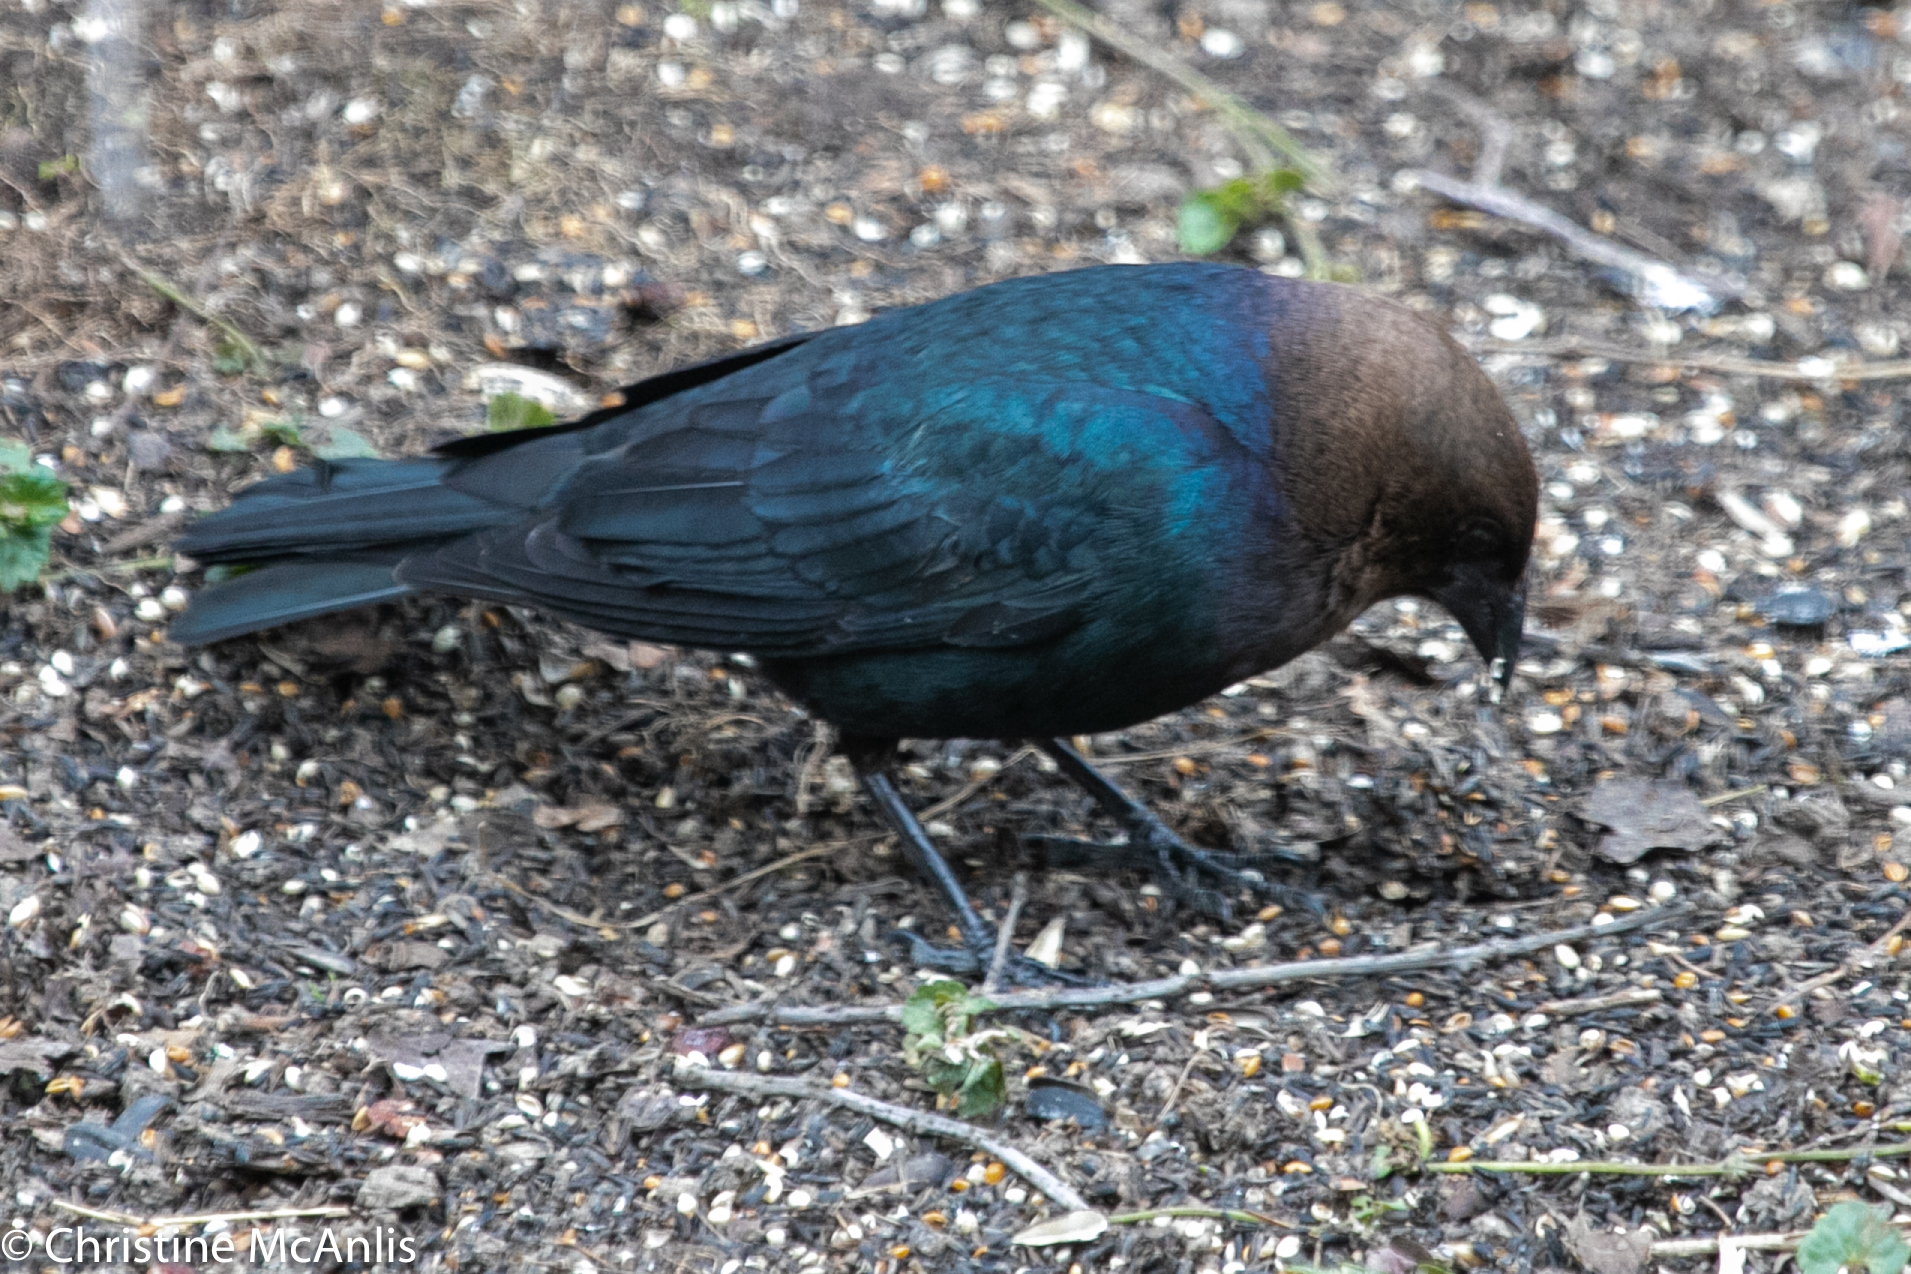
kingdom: Animalia
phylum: Chordata
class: Aves
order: Passeriformes
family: Icteridae
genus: Molothrus
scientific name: Molothrus ater
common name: Brown-headed cowbird
